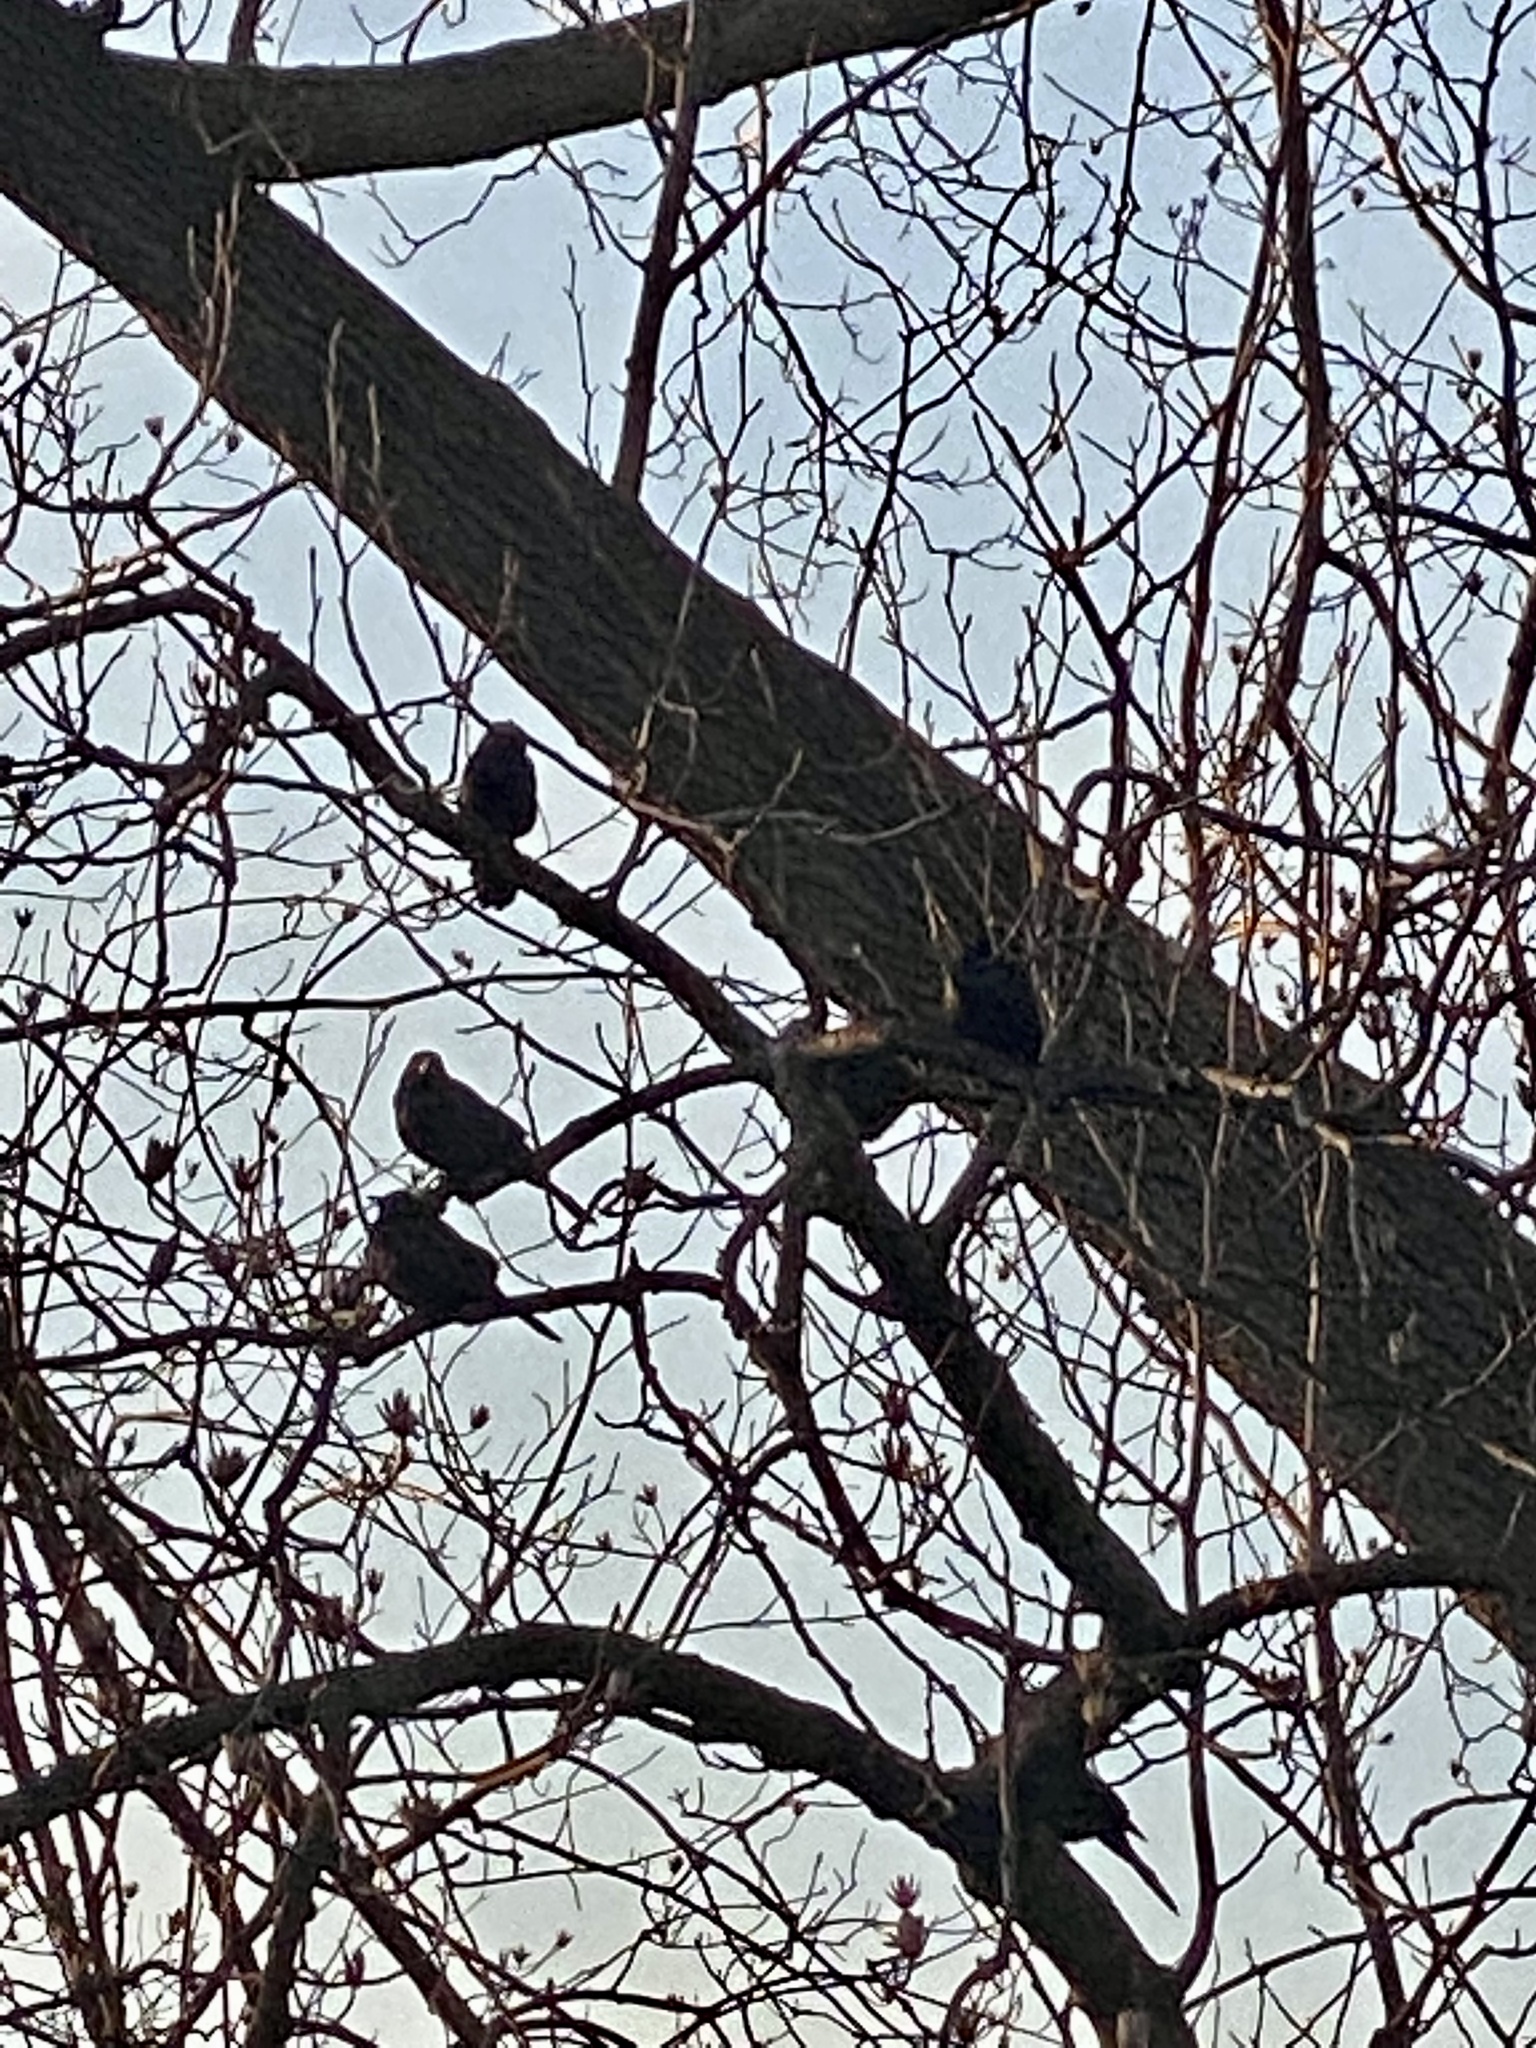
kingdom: Animalia
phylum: Chordata
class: Aves
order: Passeriformes
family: Icteridae
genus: Quiscalus
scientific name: Quiscalus quiscula
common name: Common grackle
